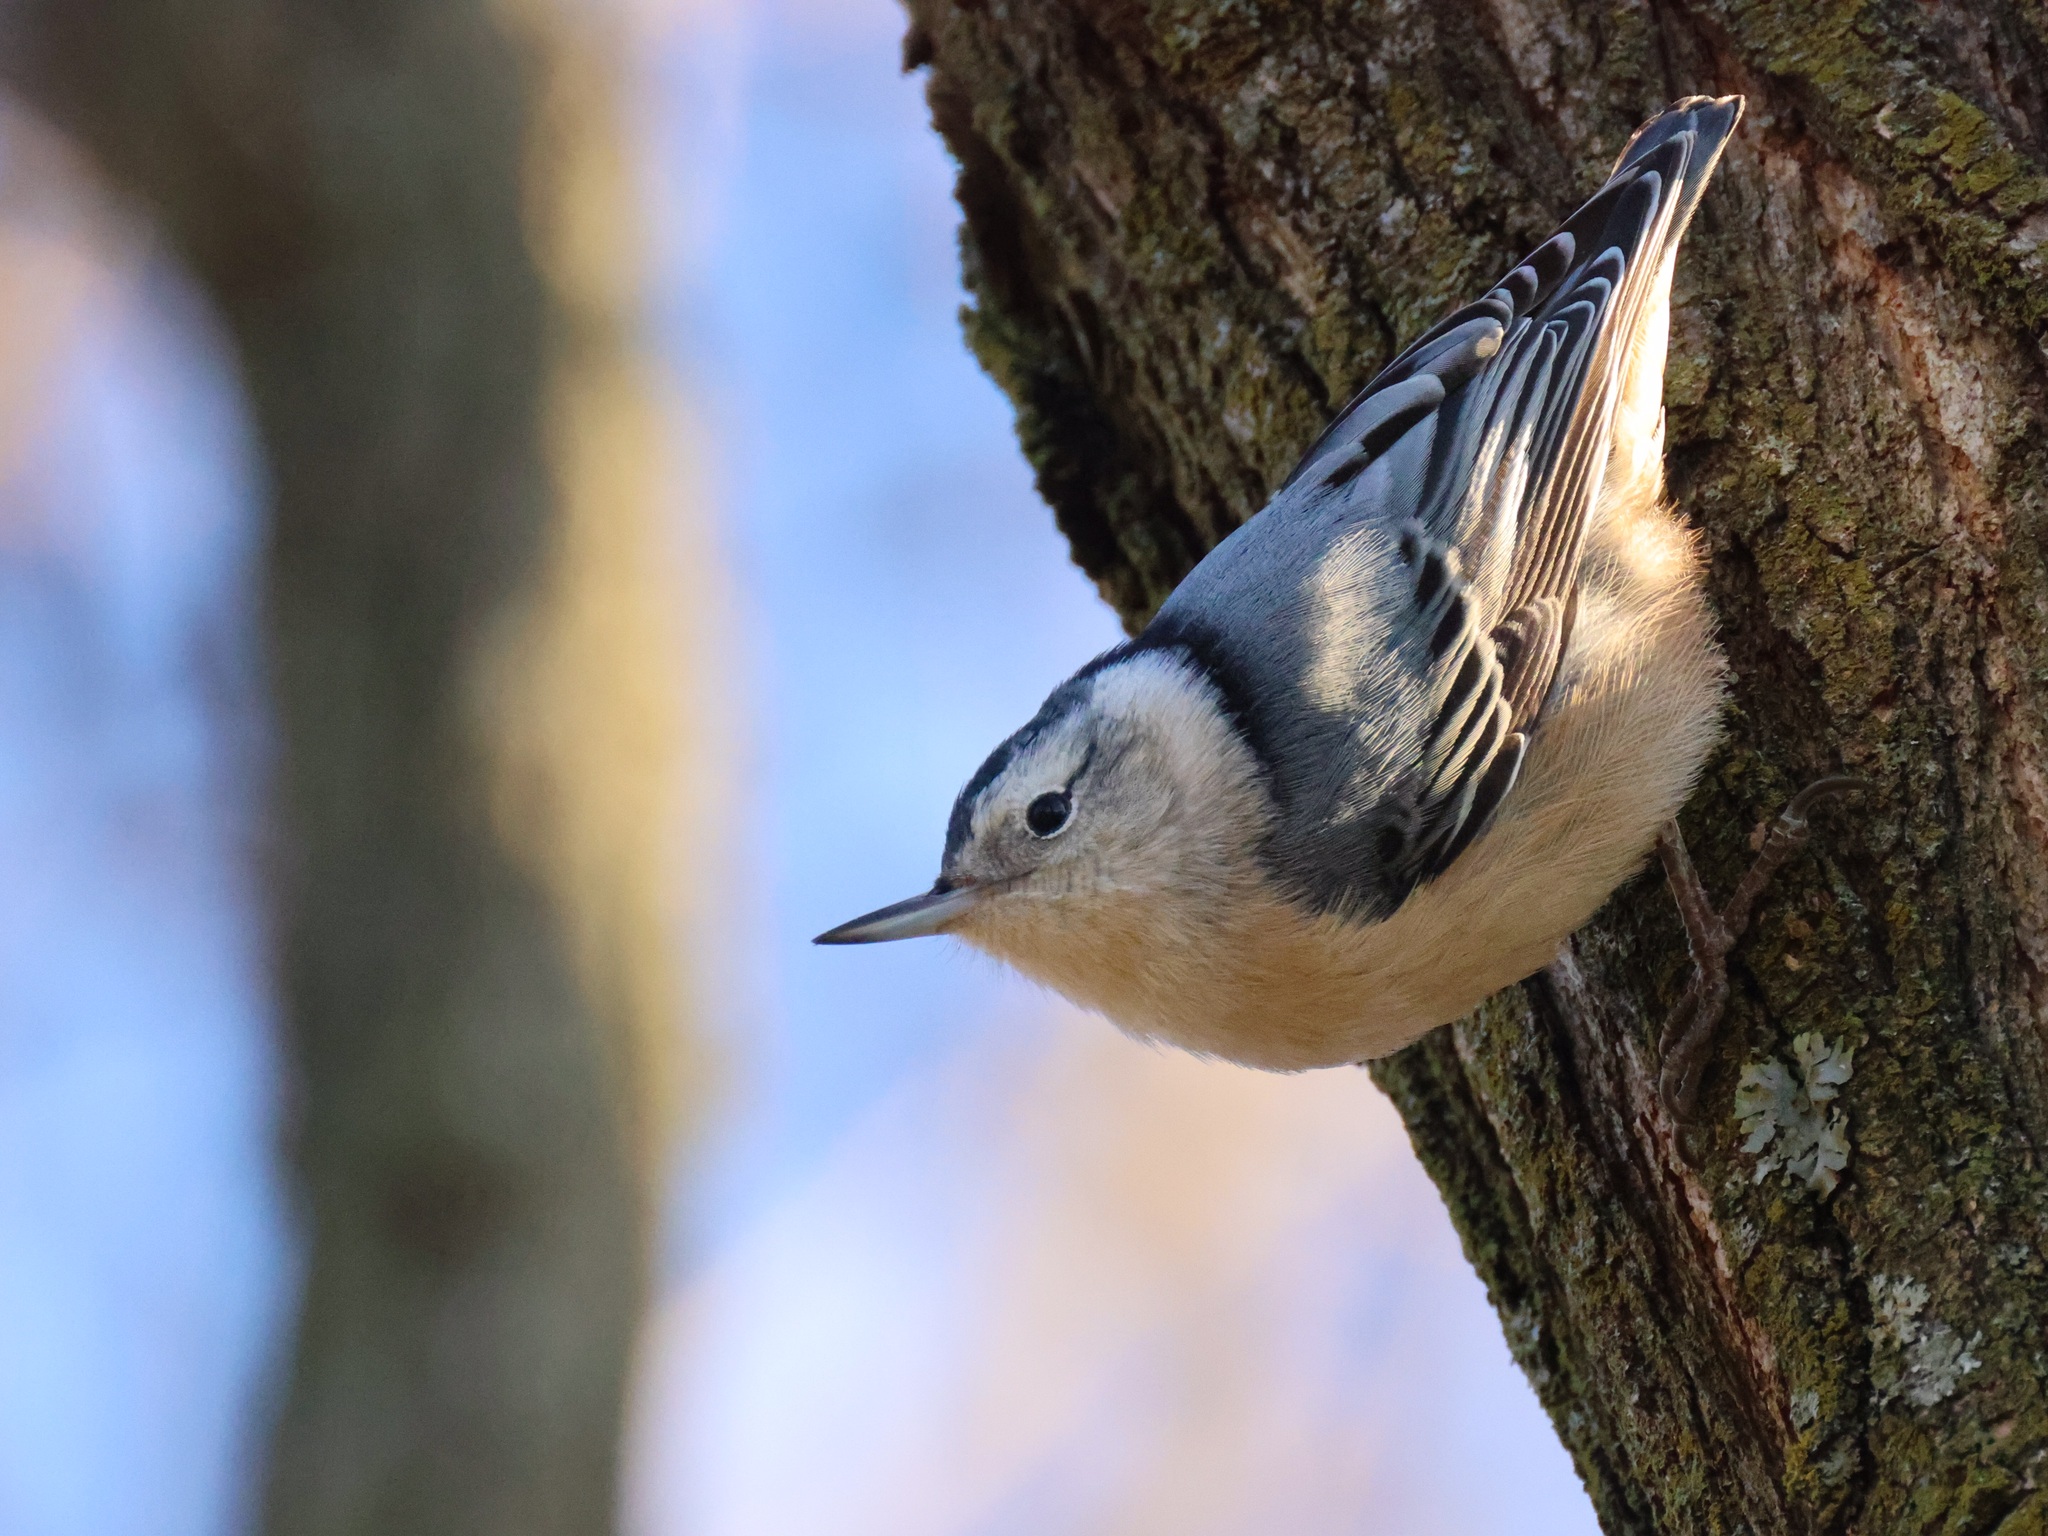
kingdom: Animalia
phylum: Chordata
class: Aves
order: Passeriformes
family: Sittidae
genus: Sitta
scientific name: Sitta carolinensis
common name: White-breasted nuthatch
